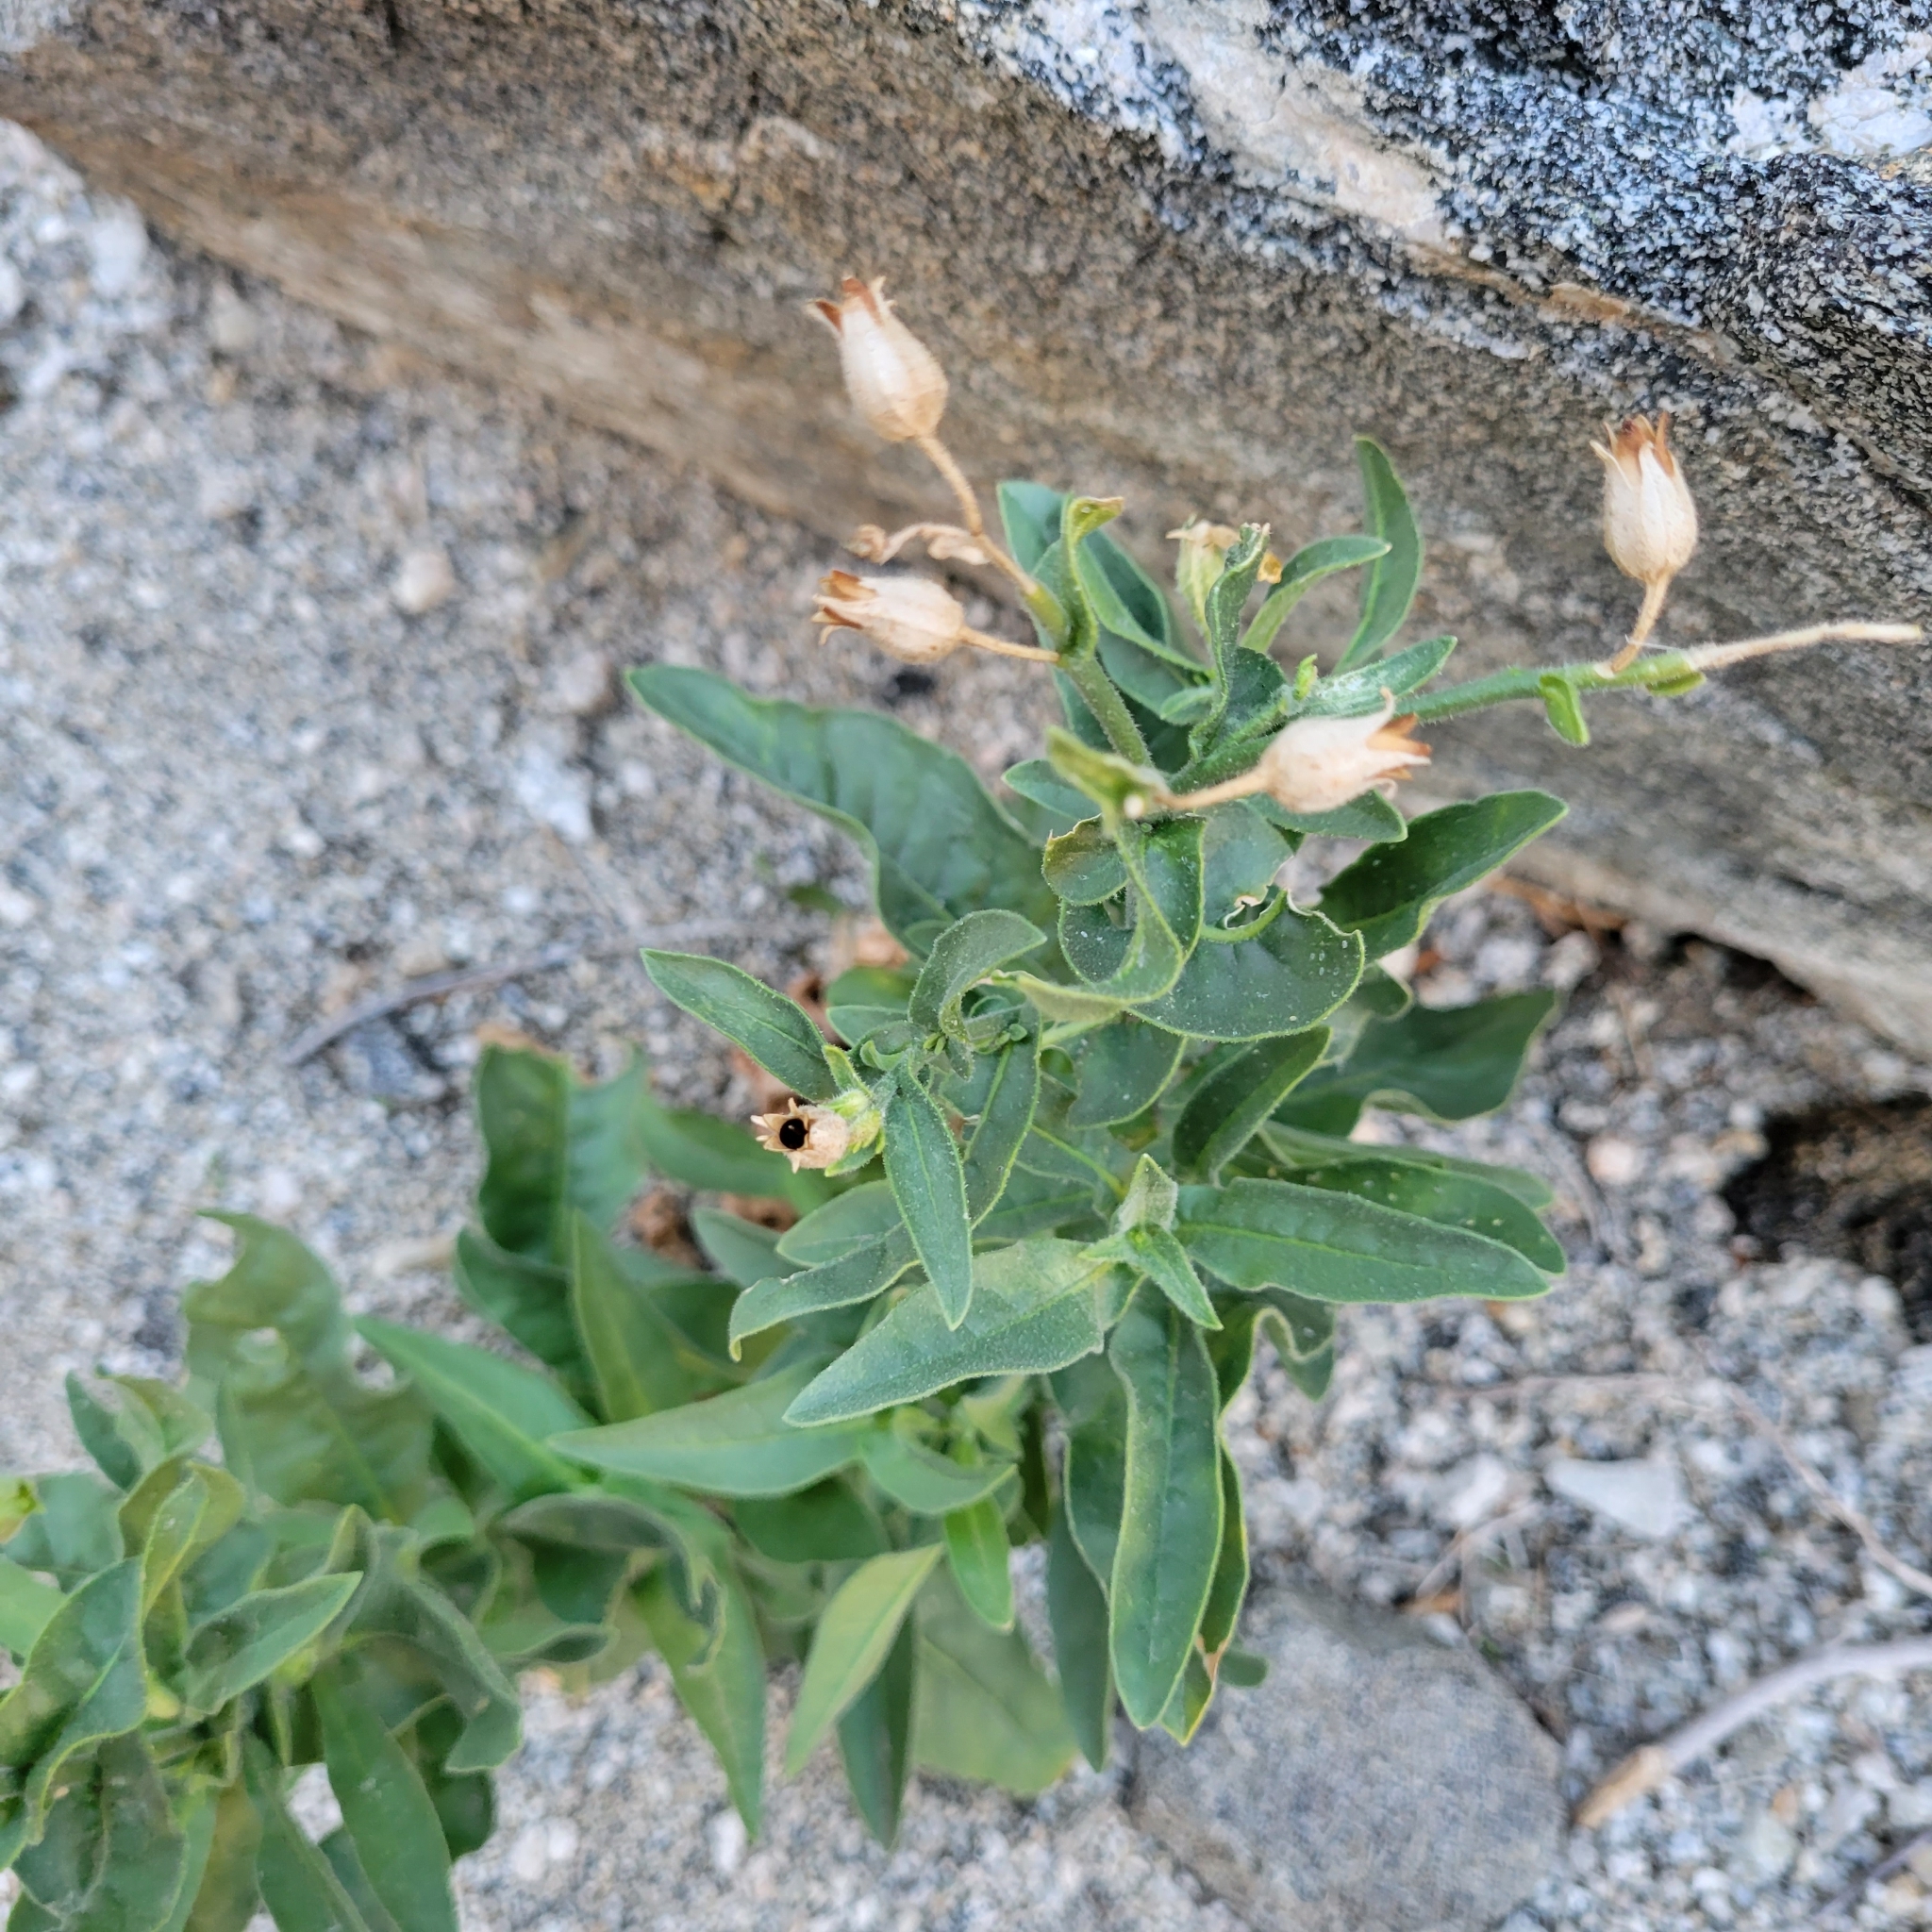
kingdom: Plantae
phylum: Tracheophyta
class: Magnoliopsida
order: Solanales
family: Solanaceae
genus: Nicotiana
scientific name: Nicotiana obtusifolia
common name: Desert tobacco
